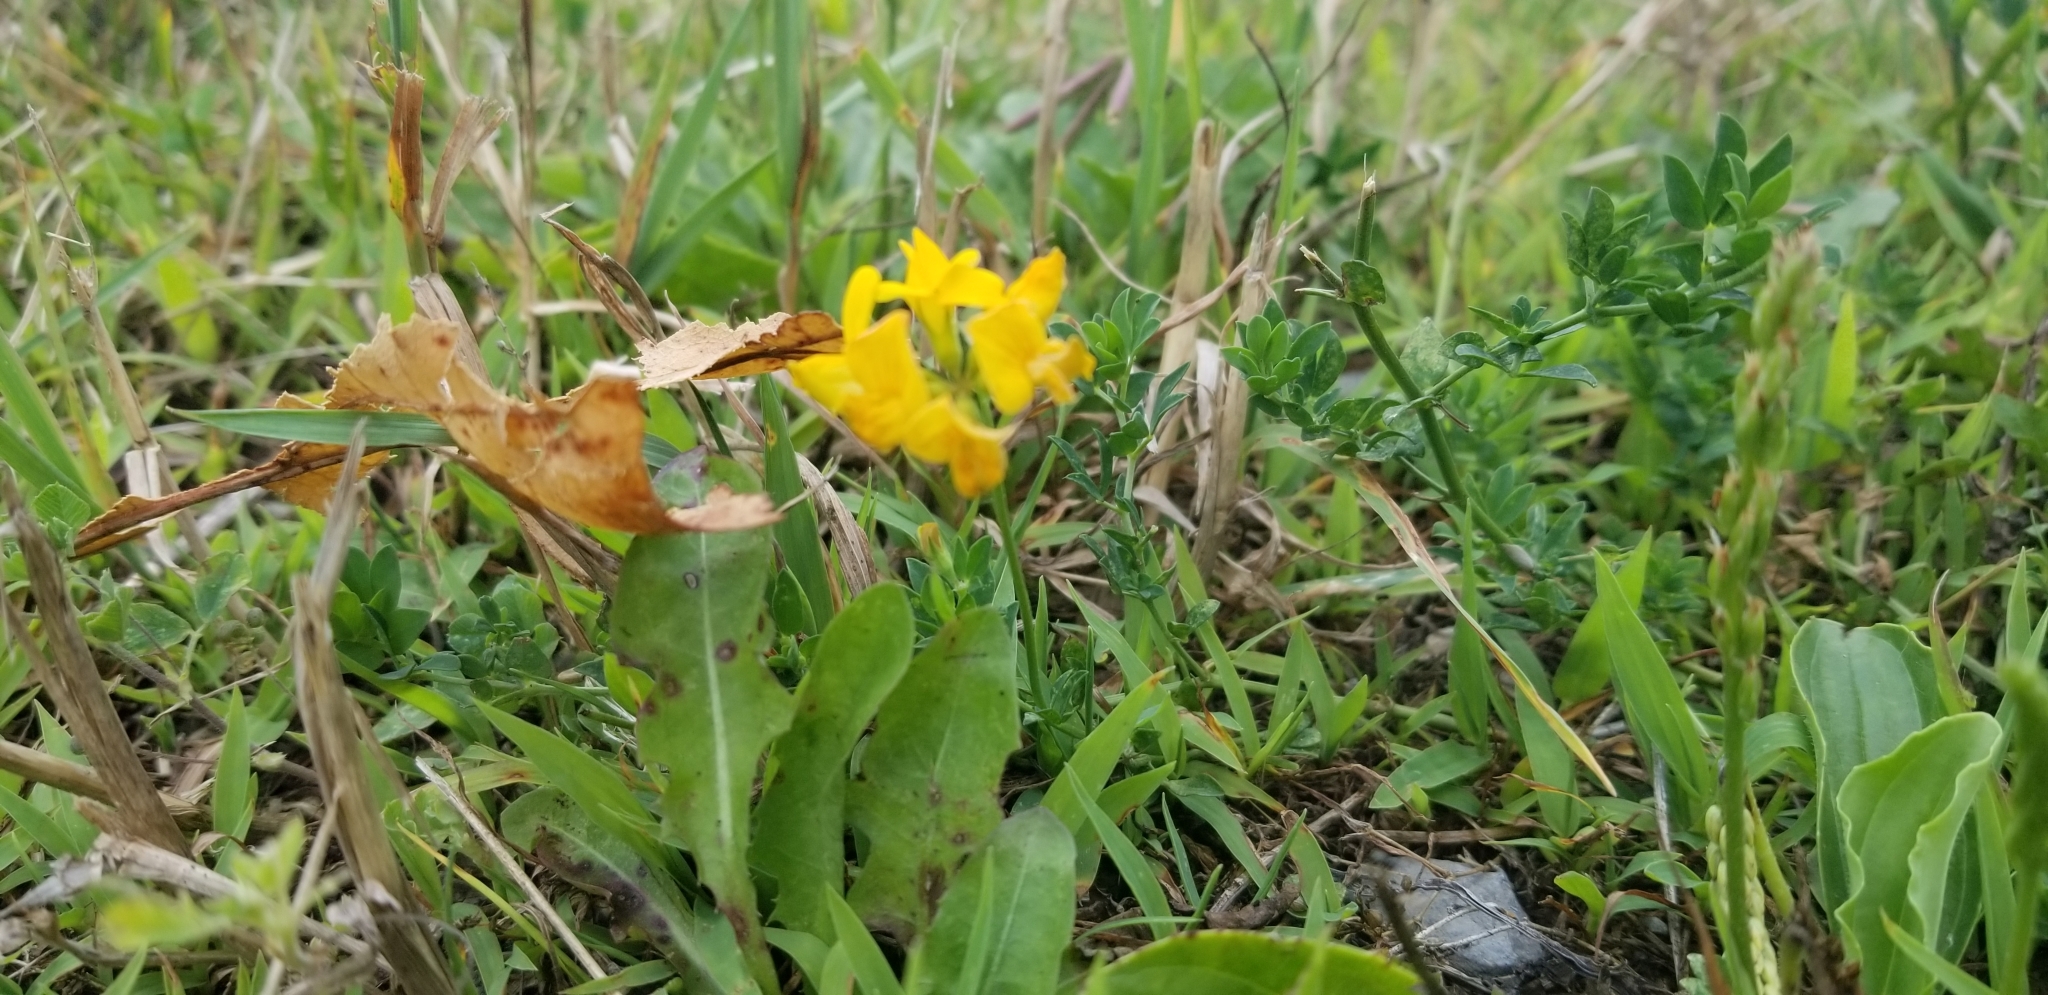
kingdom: Plantae
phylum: Tracheophyta
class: Magnoliopsida
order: Fabales
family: Fabaceae
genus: Lotus
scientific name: Lotus corniculatus
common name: Common bird's-foot-trefoil
